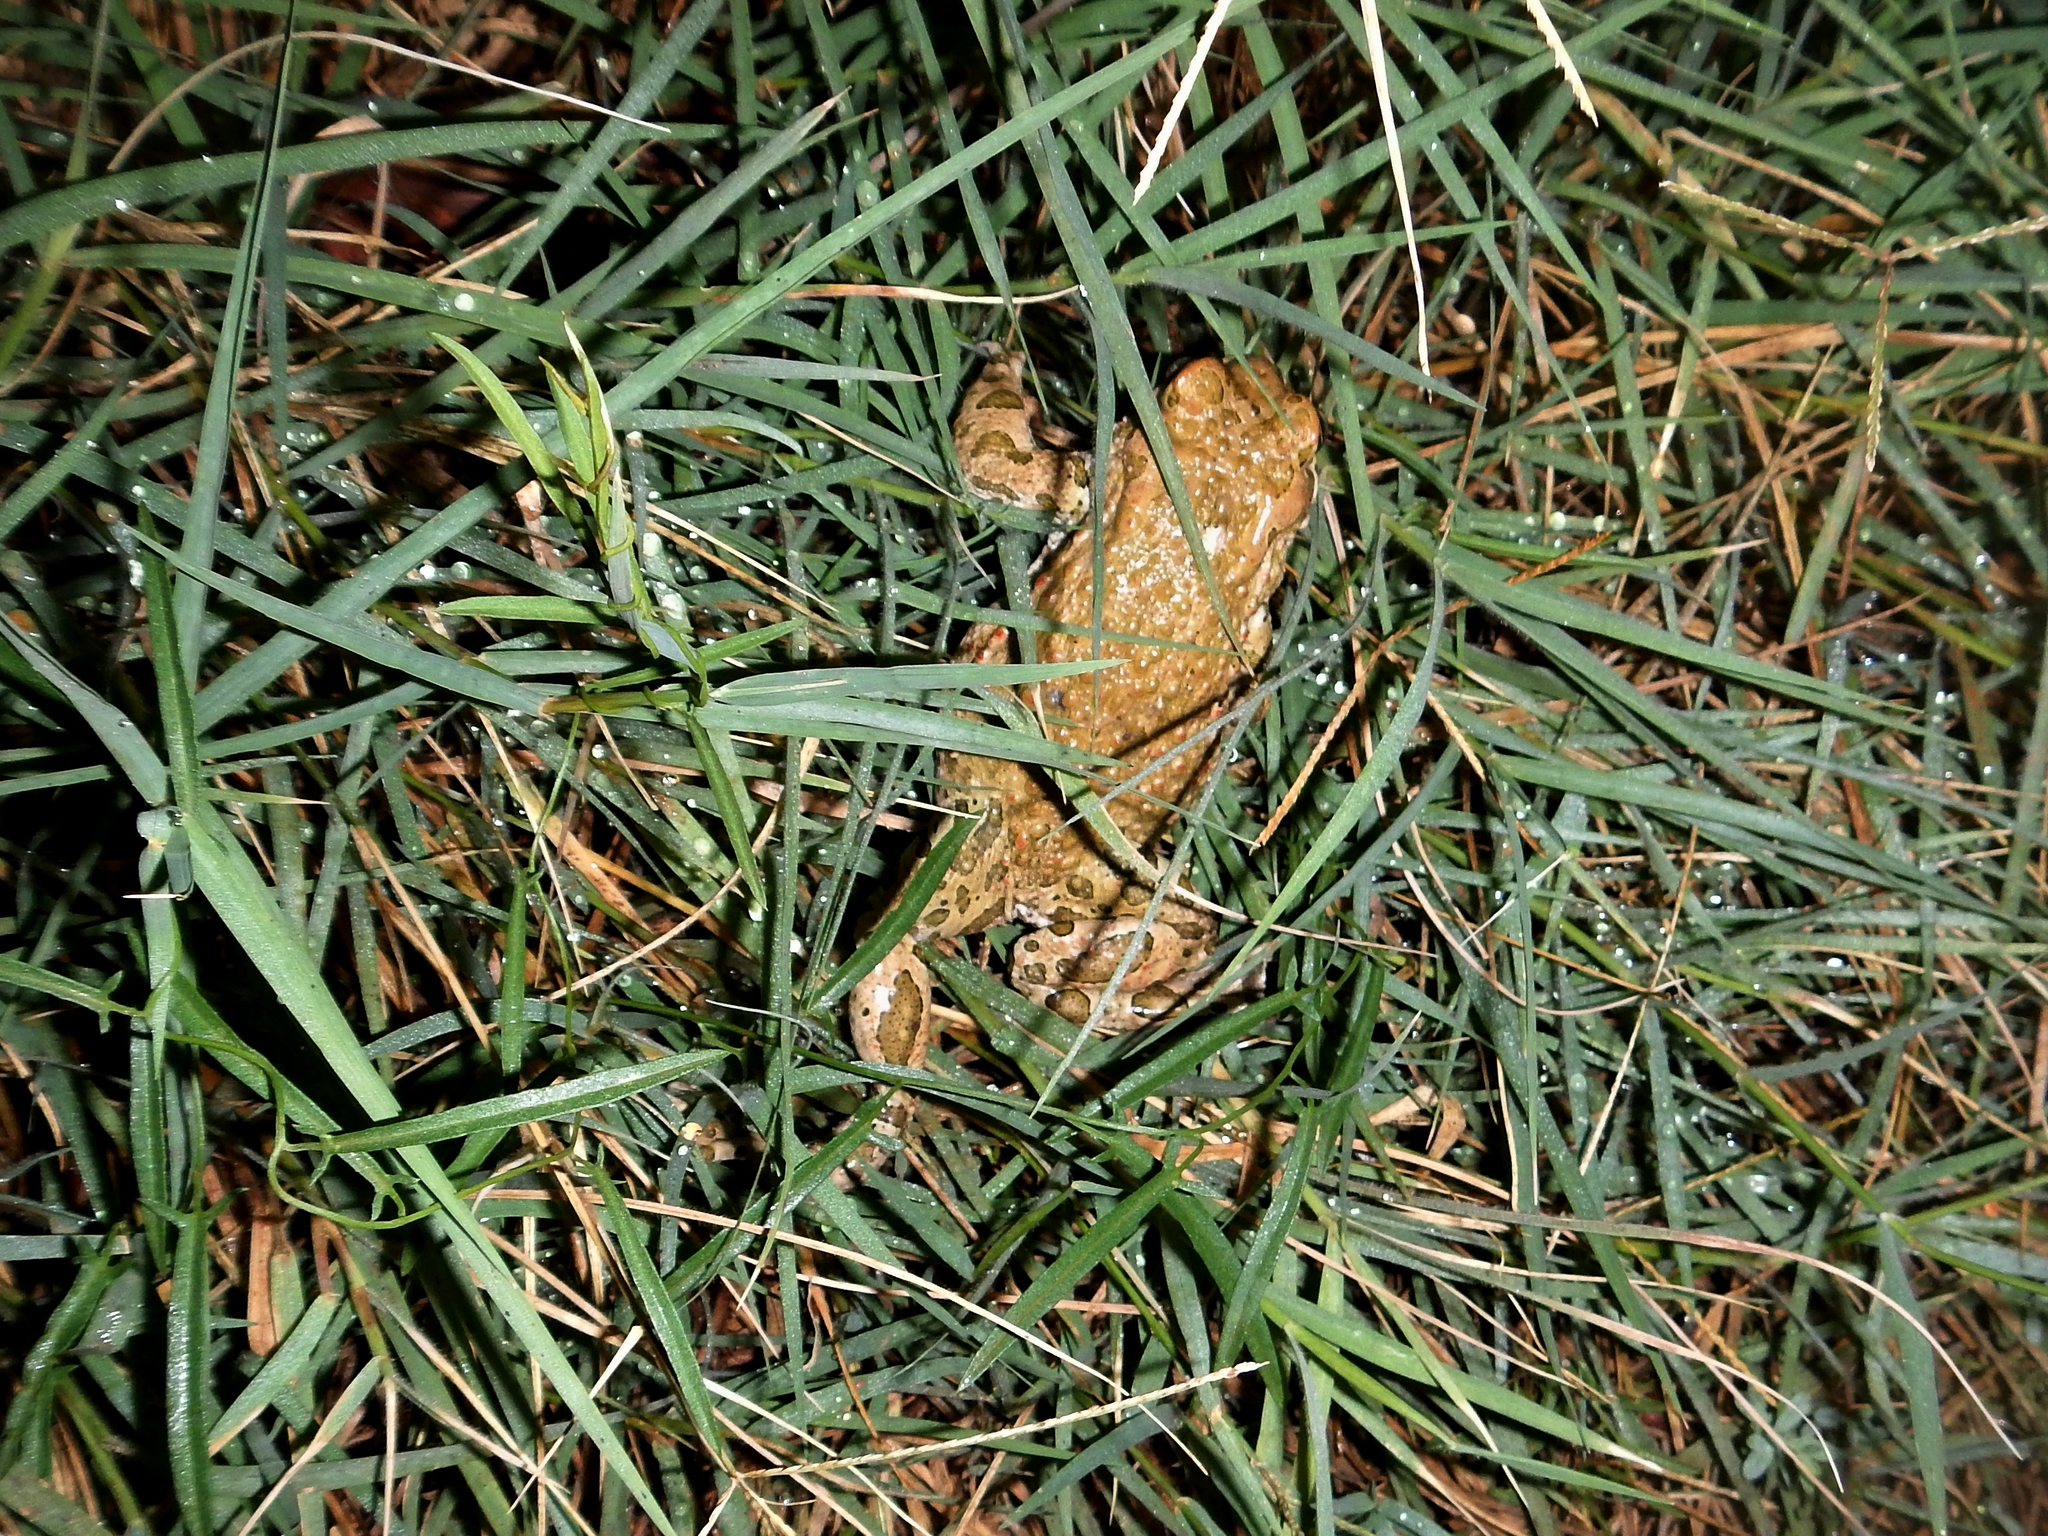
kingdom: Animalia
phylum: Chordata
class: Amphibia
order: Anura
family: Bufonidae
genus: Bufotes
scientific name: Bufotes viridis
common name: European green toad
